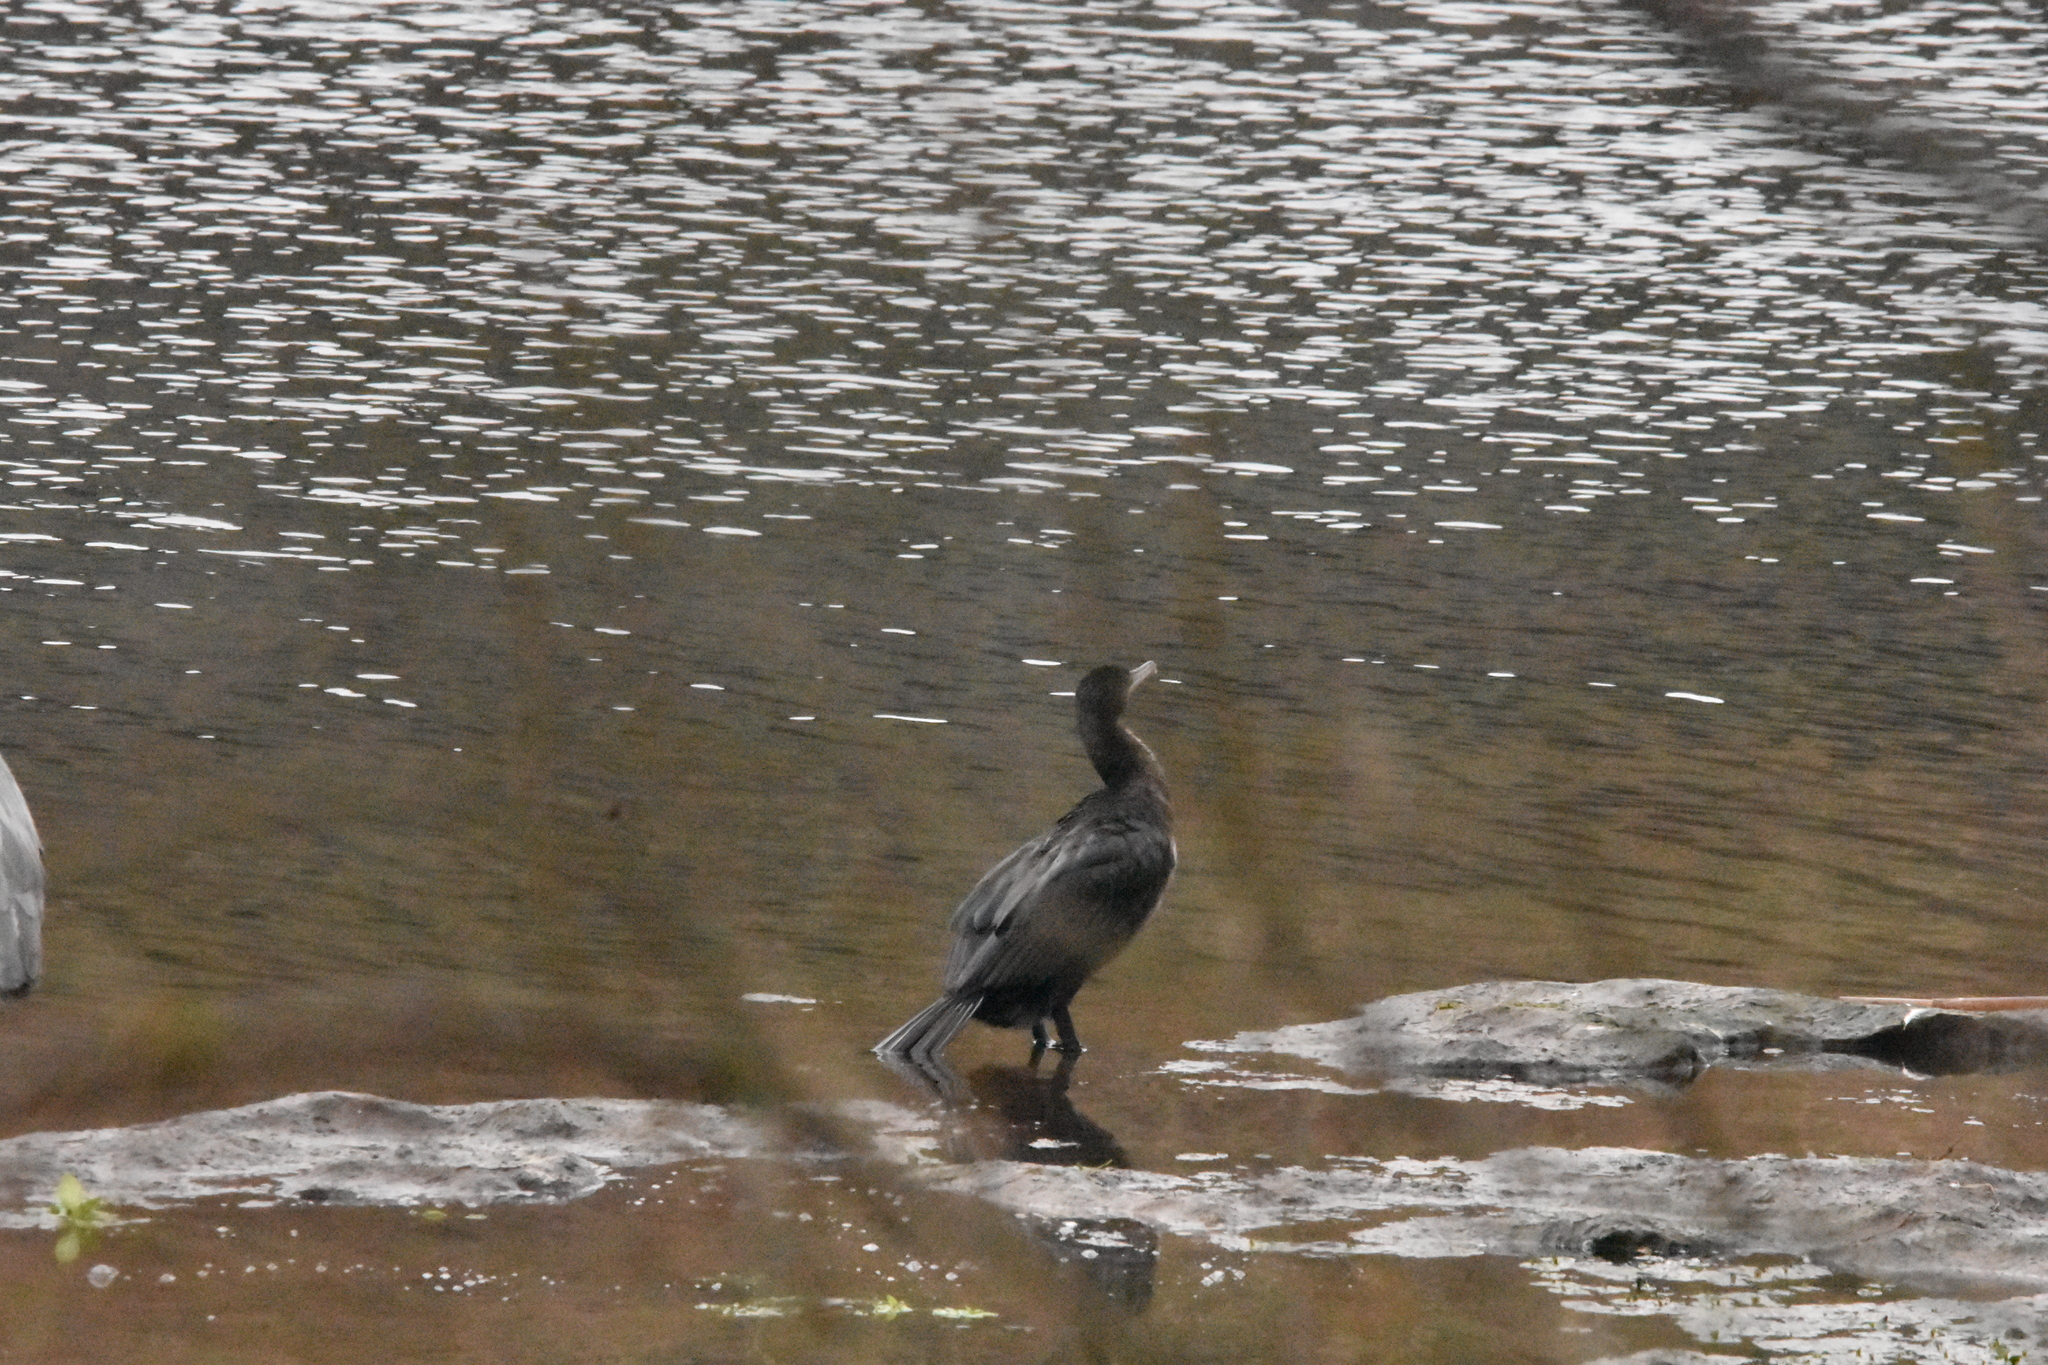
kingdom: Animalia
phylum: Chordata
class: Aves
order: Suliformes
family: Phalacrocoracidae
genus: Phalacrocorax
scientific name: Phalacrocorax carbo
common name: Great cormorant
